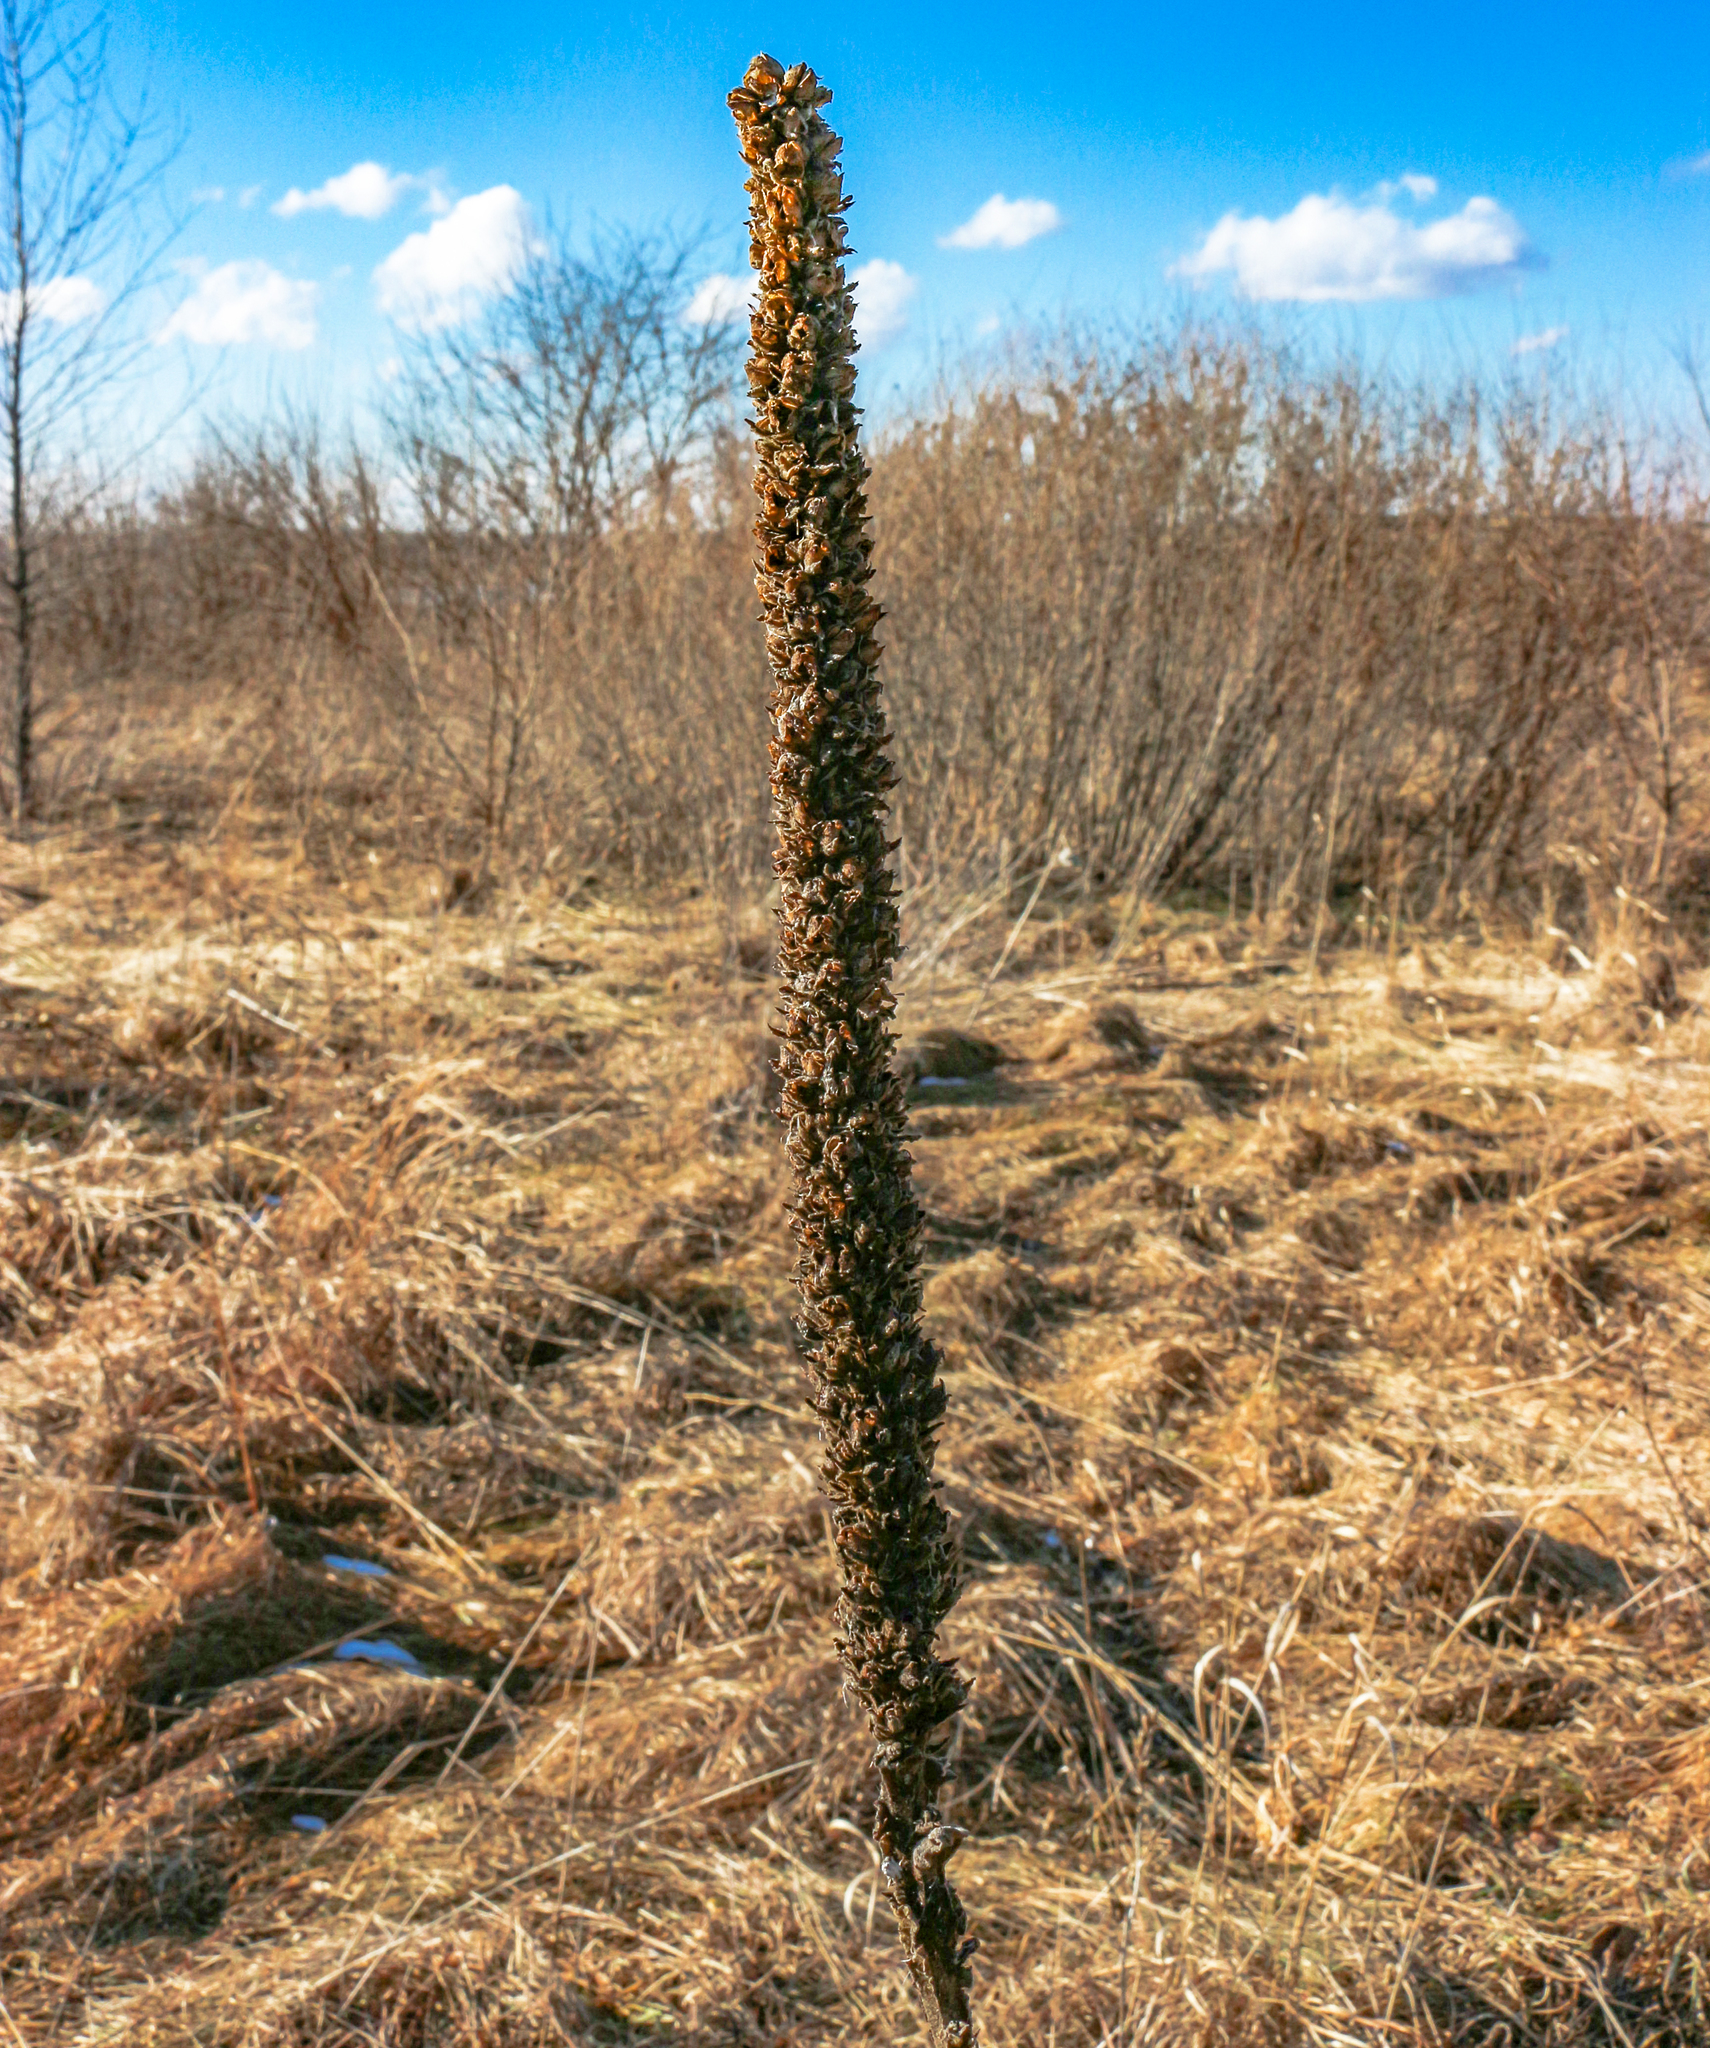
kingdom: Plantae
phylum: Tracheophyta
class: Magnoliopsida
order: Lamiales
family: Scrophulariaceae
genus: Verbascum
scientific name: Verbascum thapsus
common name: Common mullein
